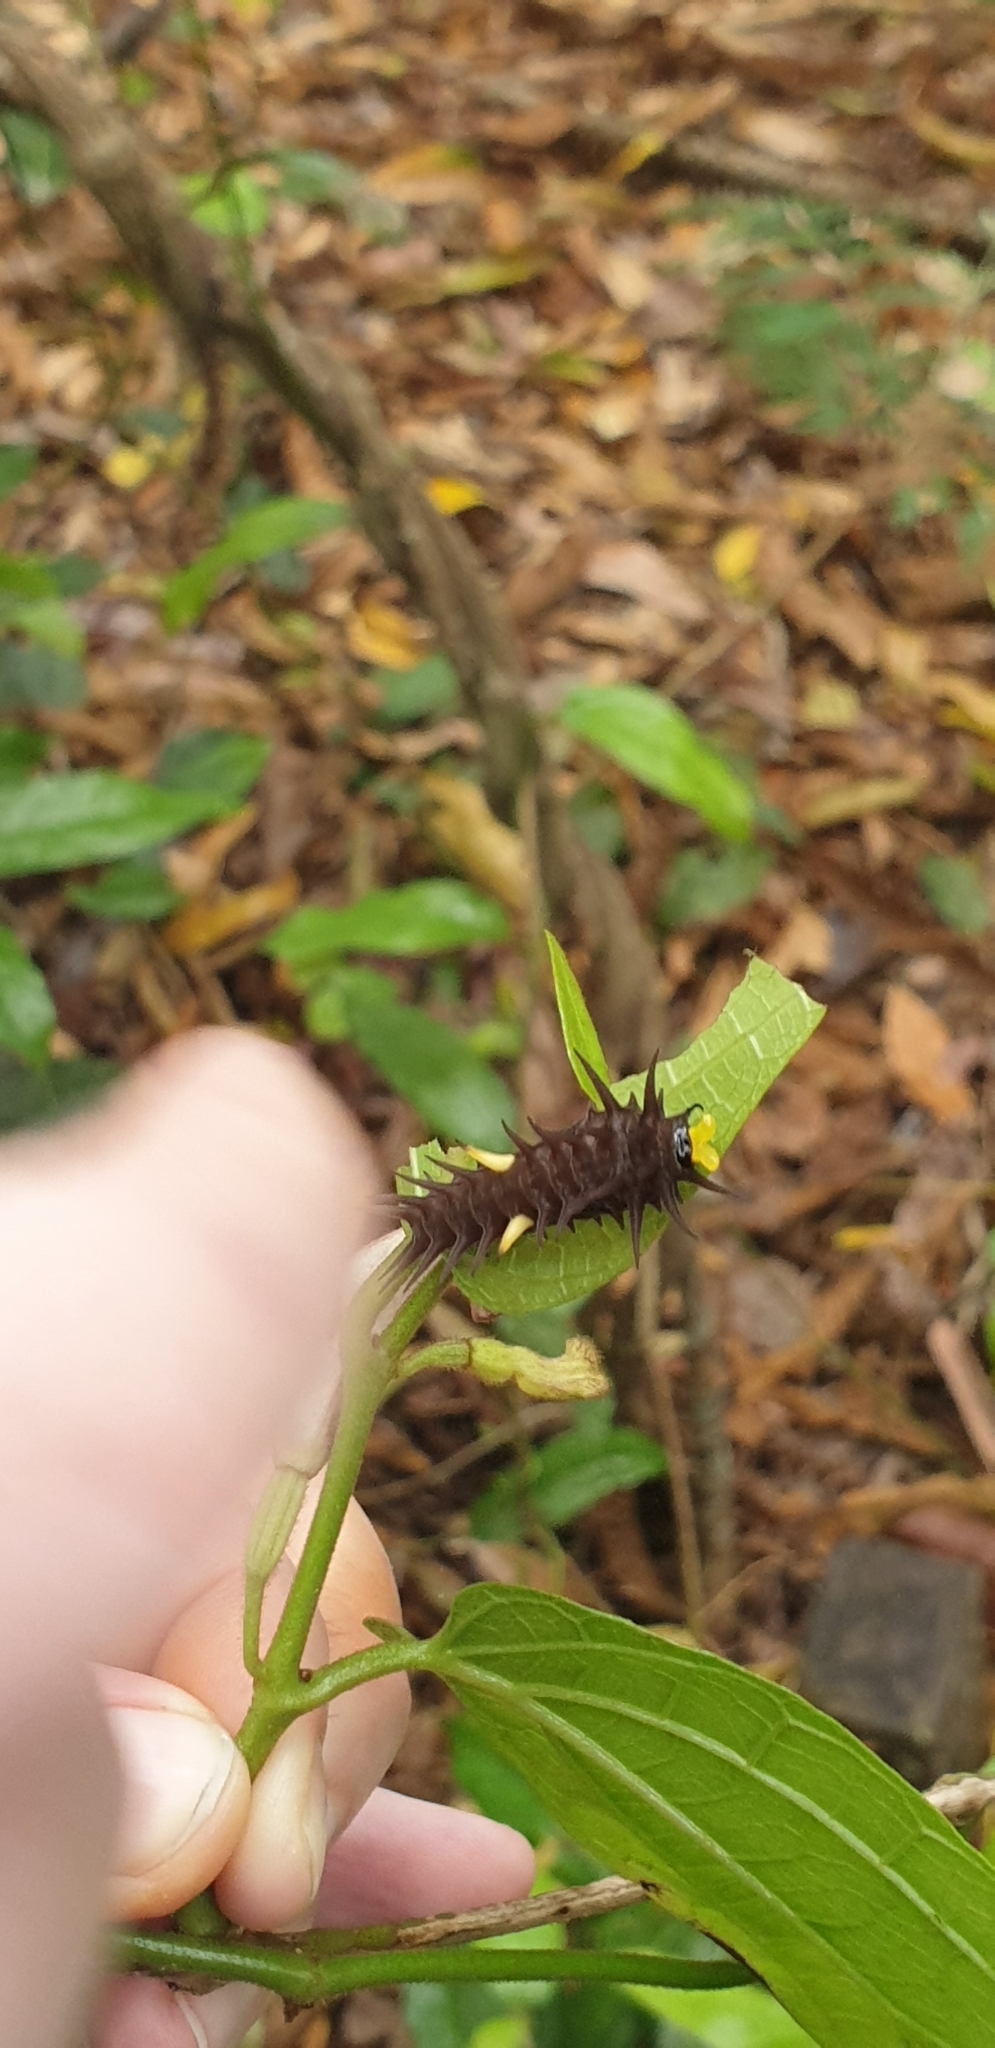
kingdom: Animalia
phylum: Arthropoda
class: Insecta
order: Lepidoptera
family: Papilionidae
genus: Ornithoptera
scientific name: Ornithoptera richmondia
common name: Richmond birdwing
